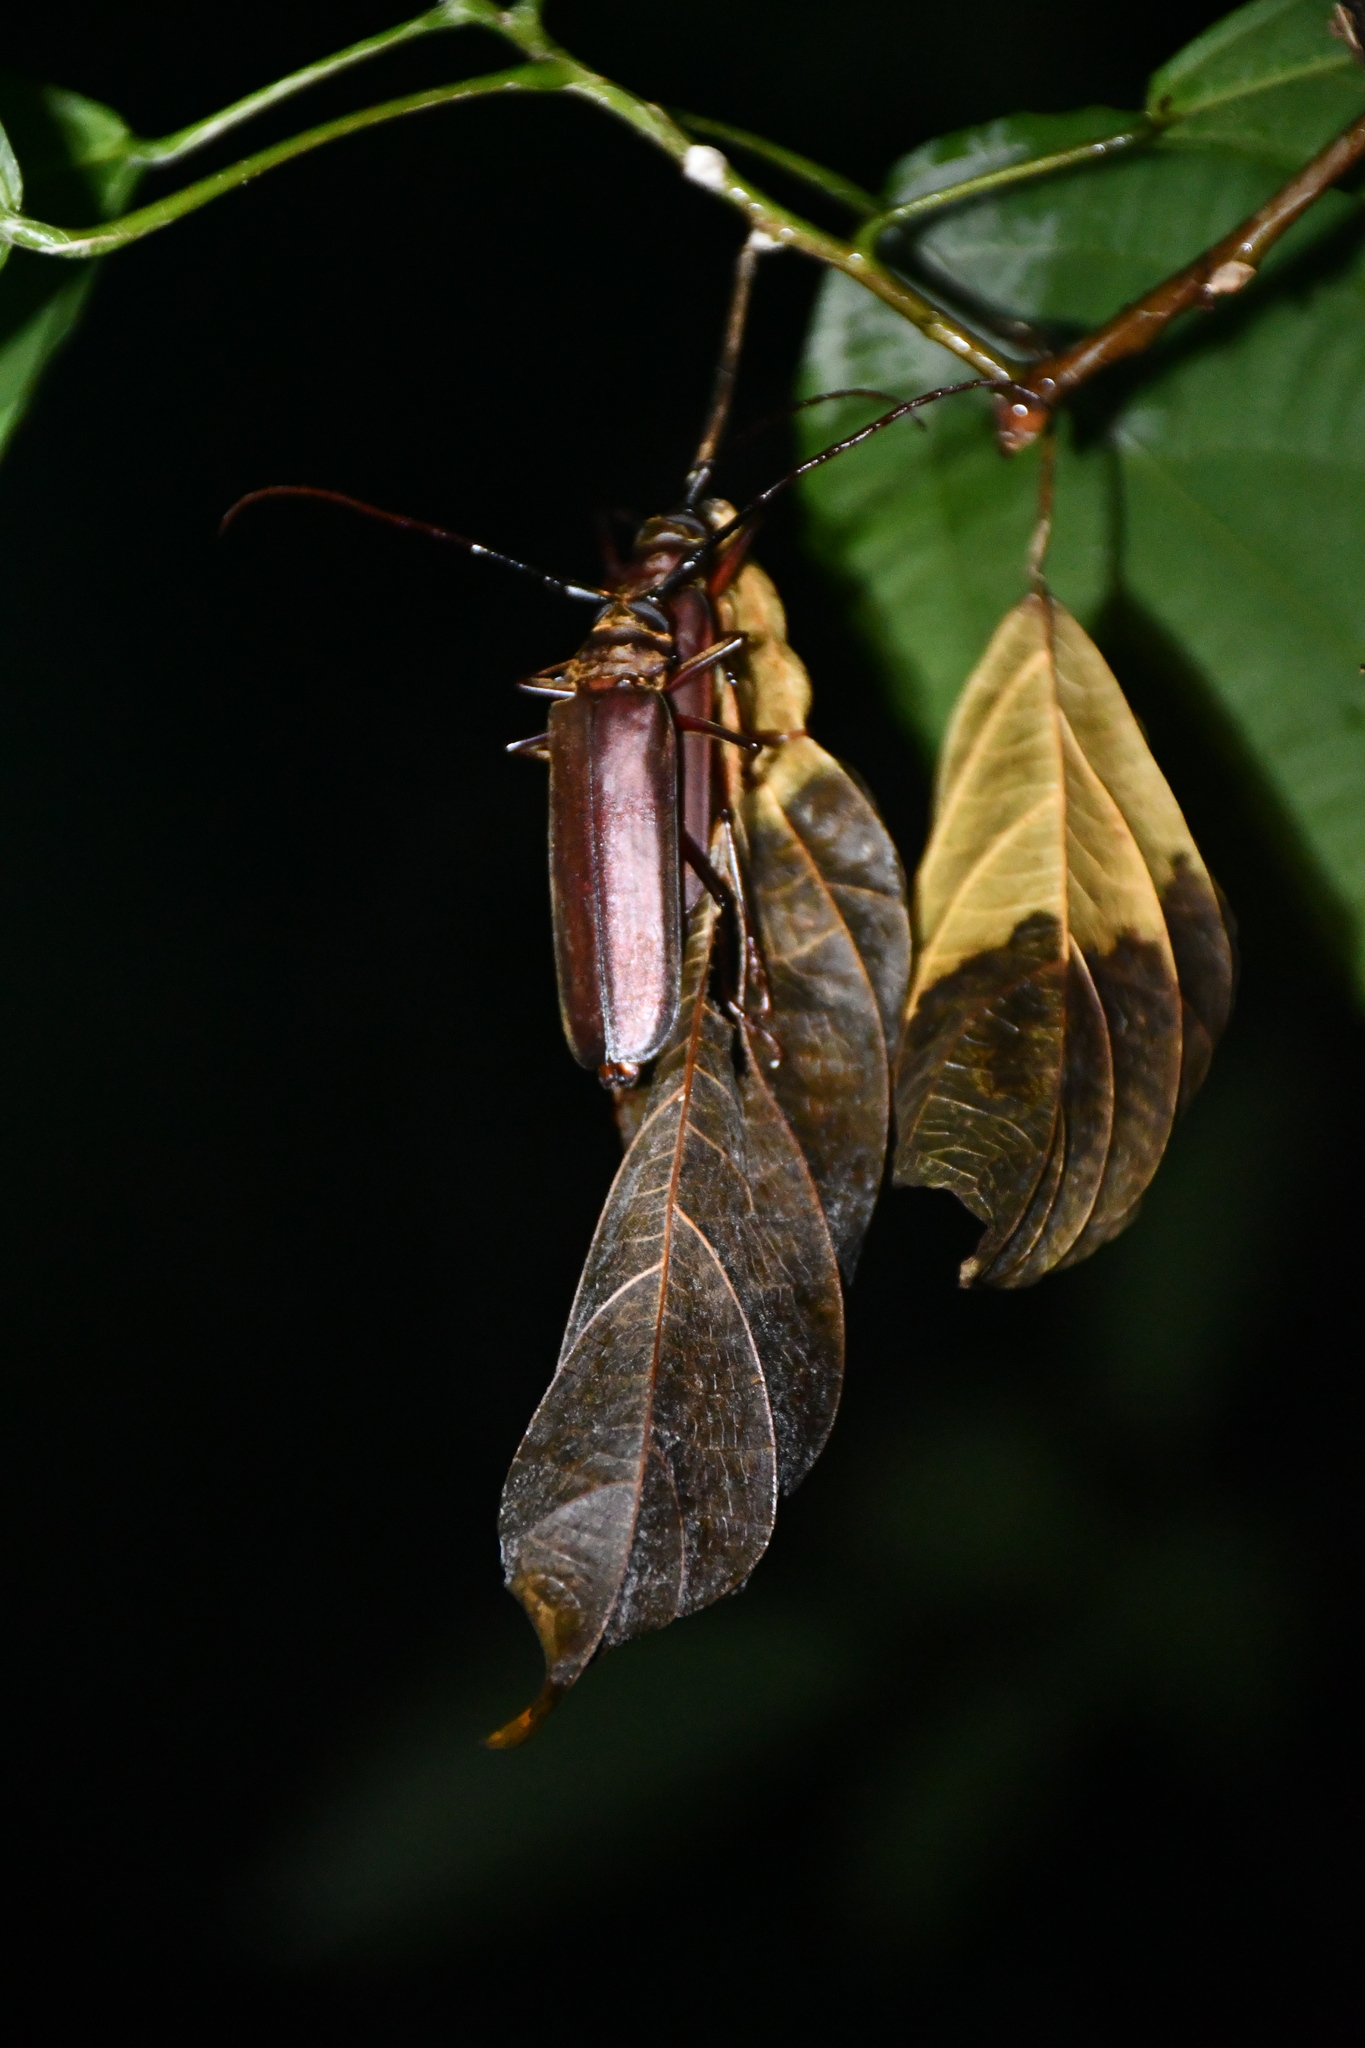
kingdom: Animalia
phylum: Arthropoda
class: Insecta
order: Coleoptera
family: Cerambycidae
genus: Orthomegas
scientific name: Orthomegas cinnamomeus
